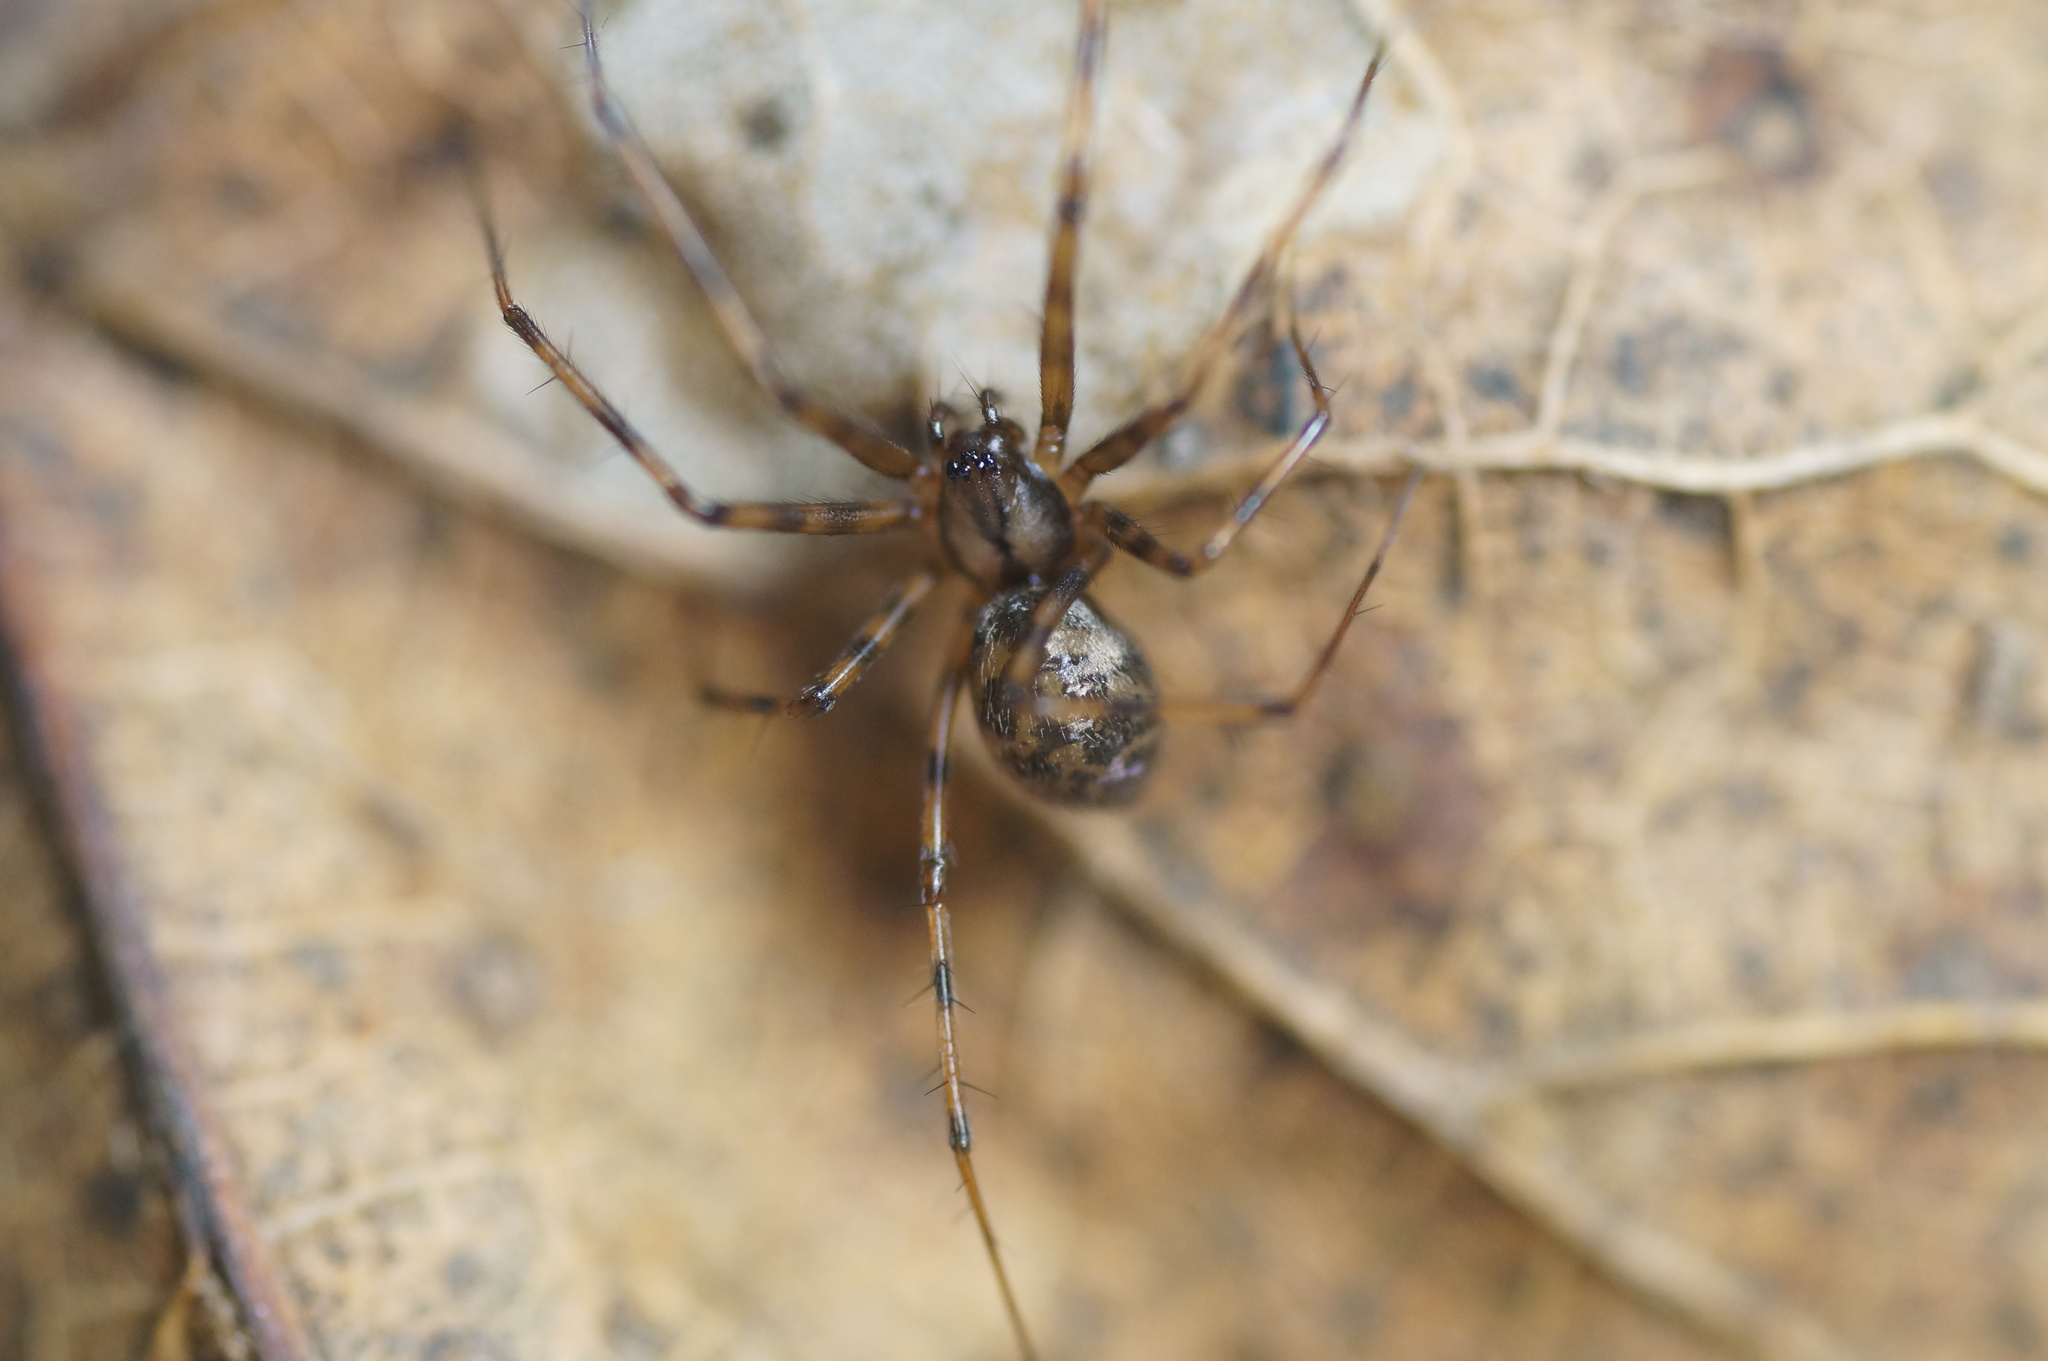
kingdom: Animalia
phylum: Arthropoda
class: Arachnida
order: Araneae
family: Linyphiidae
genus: Megalepthyphantes
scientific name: Megalepthyphantes
